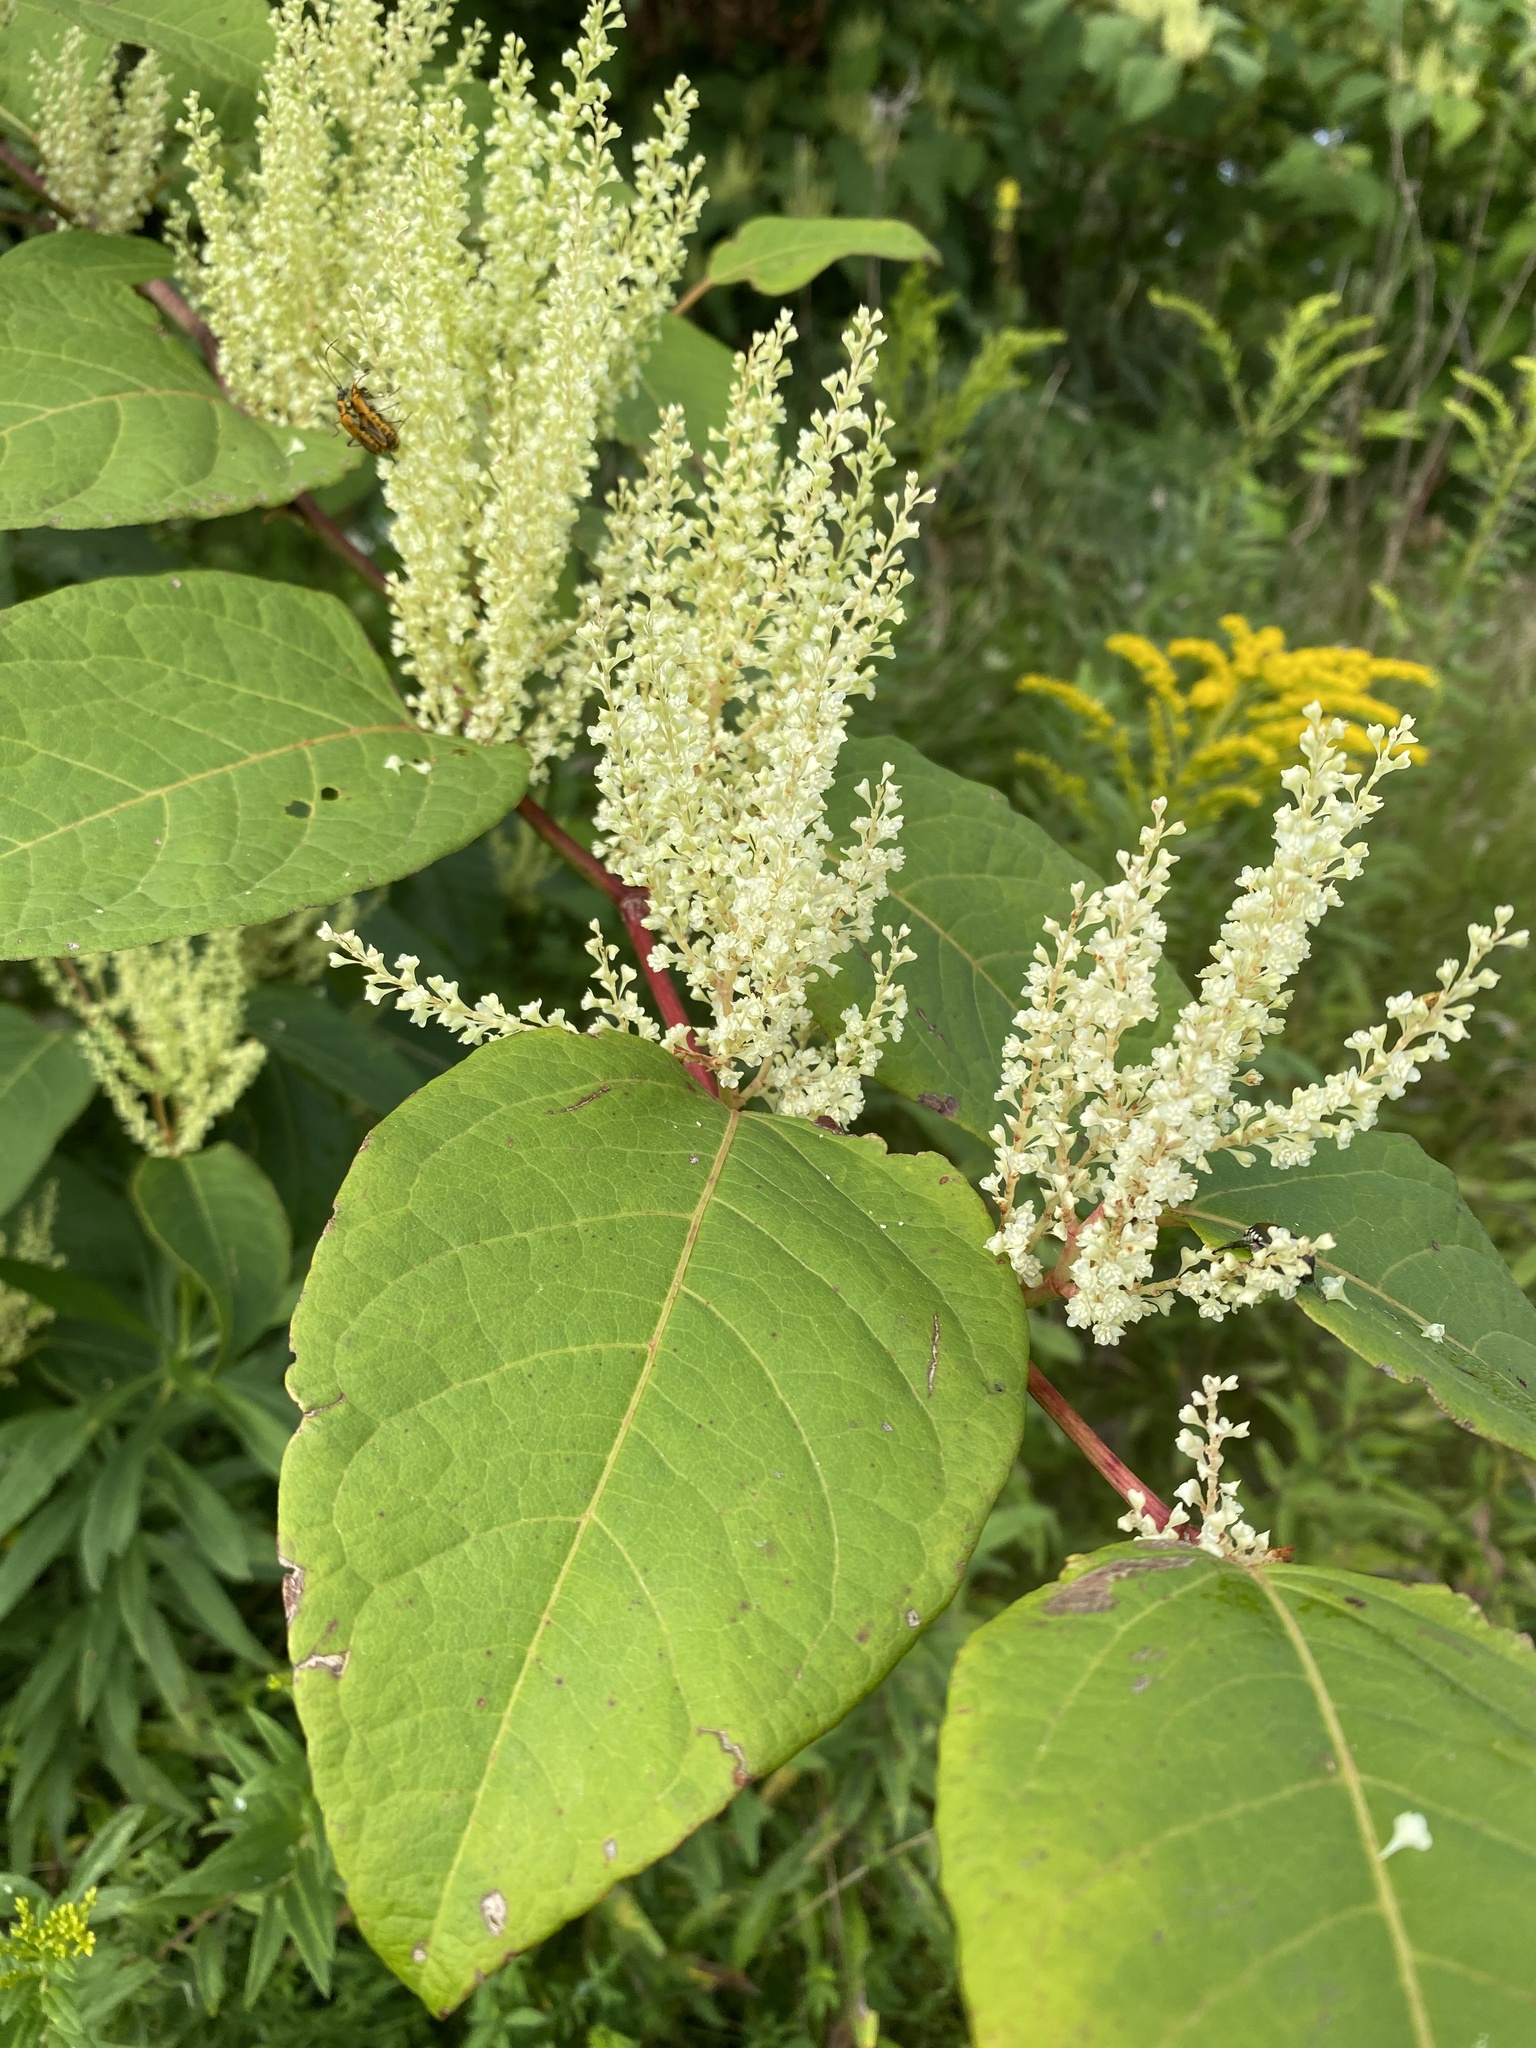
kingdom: Plantae
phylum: Tracheophyta
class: Magnoliopsida
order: Caryophyllales
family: Polygonaceae
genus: Reynoutria
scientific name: Reynoutria japonica
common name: Japanese knotweed
